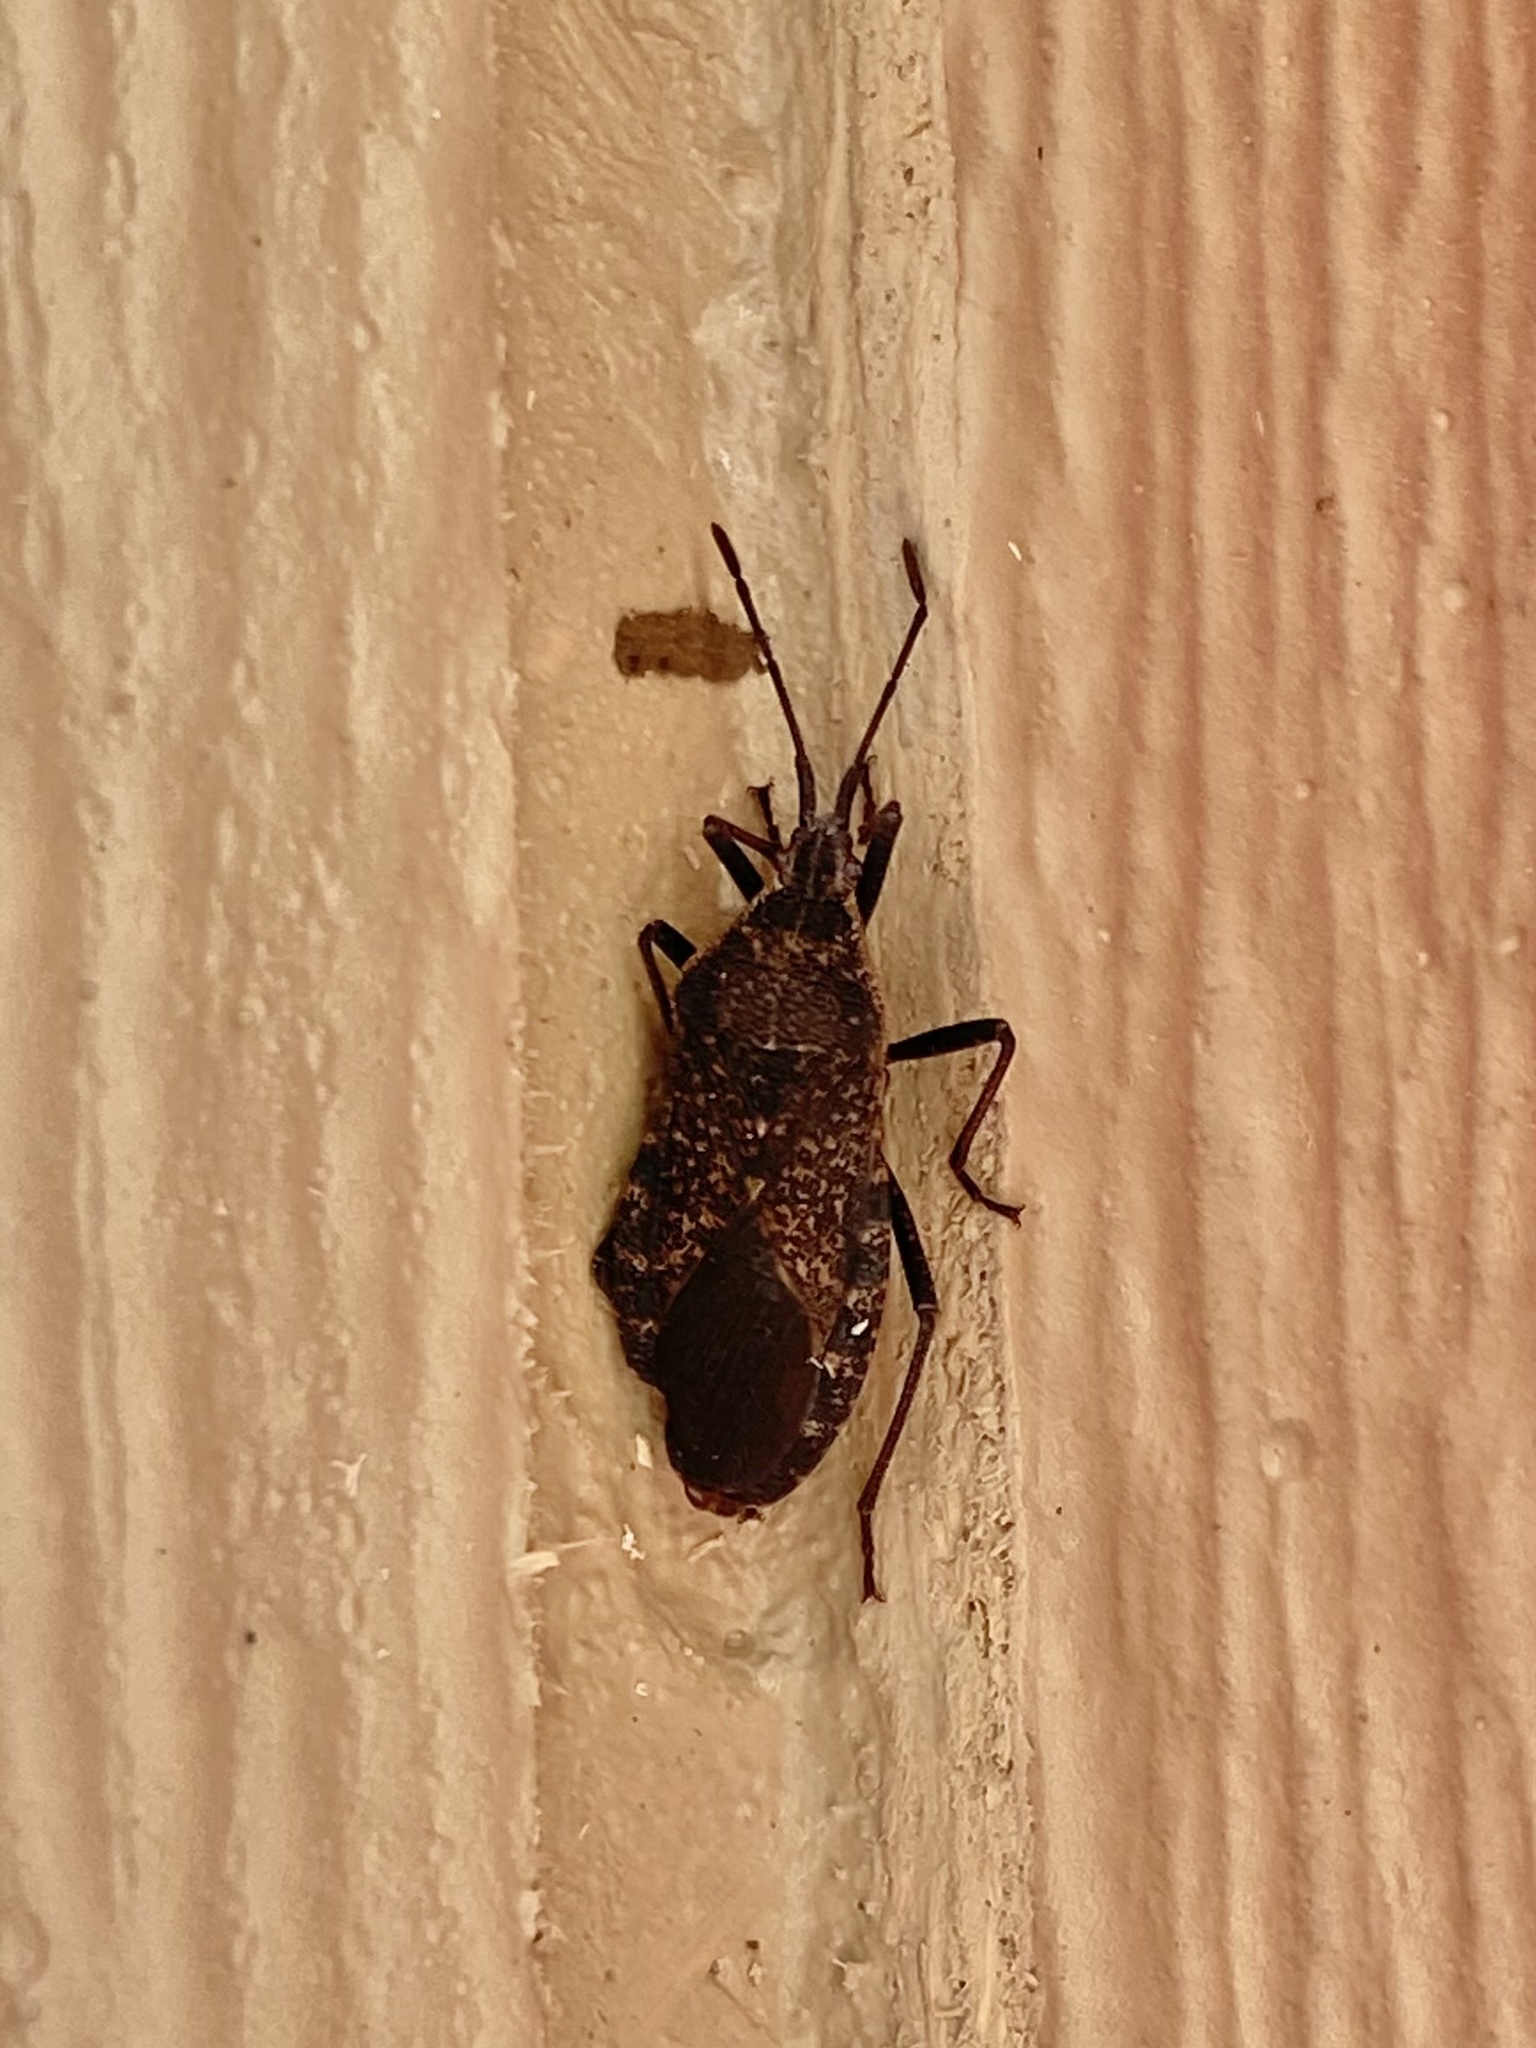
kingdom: Animalia
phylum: Arthropoda
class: Insecta
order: Hemiptera
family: Coreidae
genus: Anasa
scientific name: Anasa tristis
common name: Squash bug
